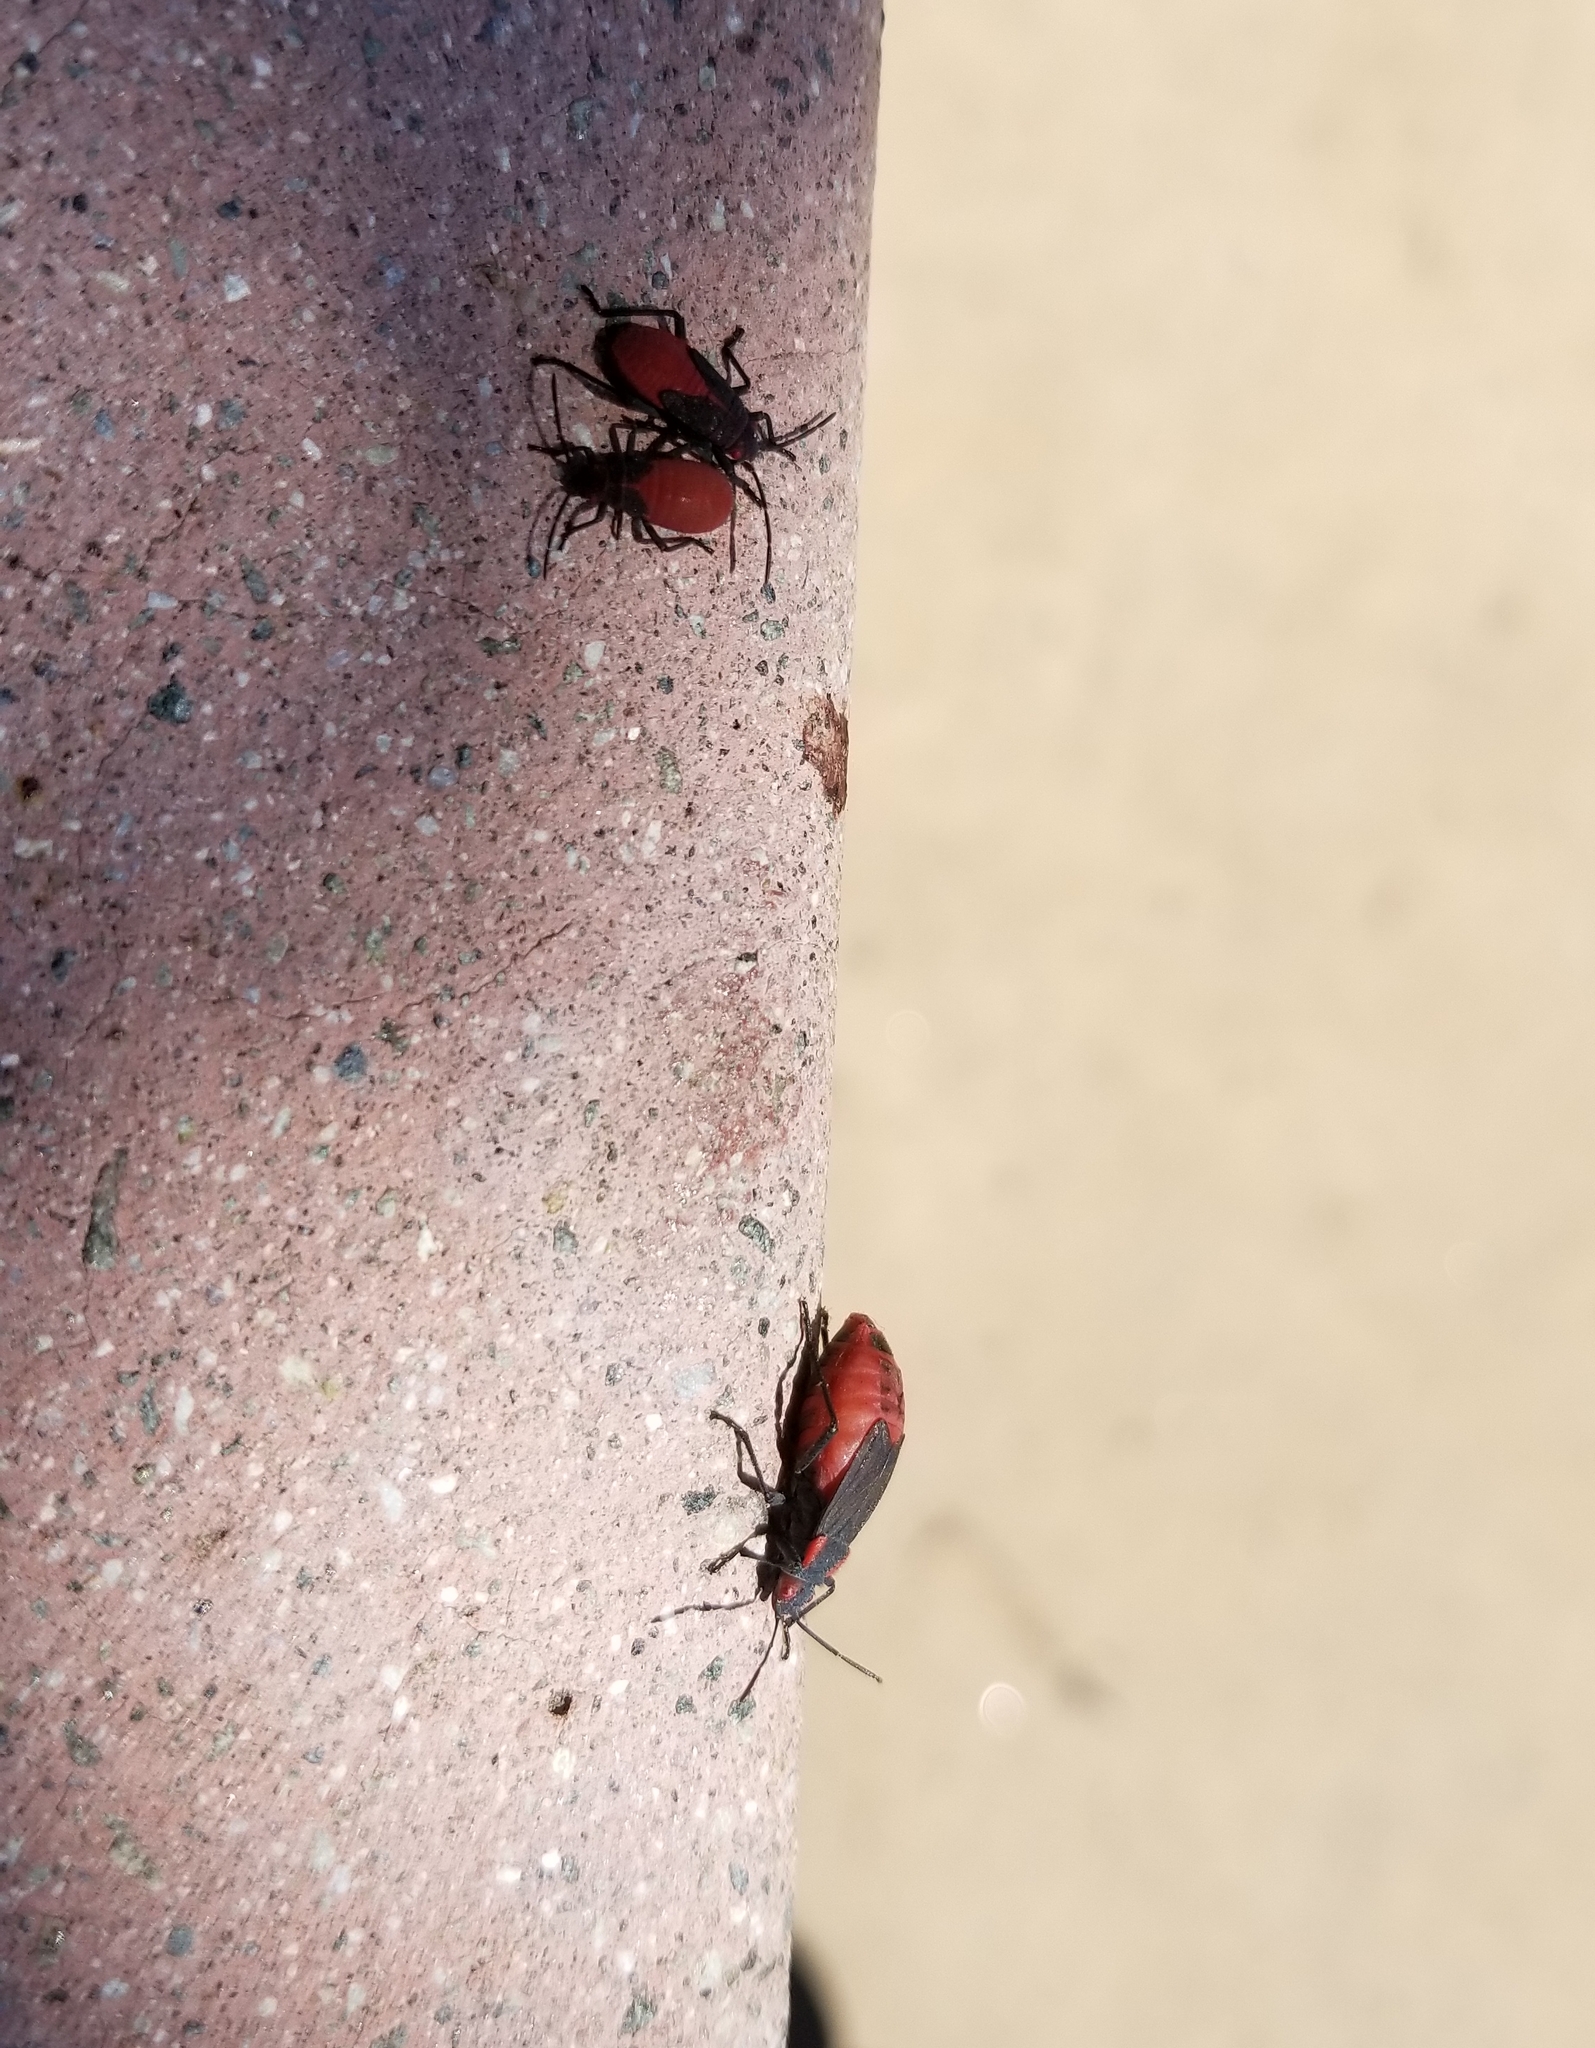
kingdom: Animalia
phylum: Arthropoda
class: Insecta
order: Hemiptera
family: Rhopalidae
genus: Jadera
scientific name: Jadera haematoloma
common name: Red-shouldered bug
